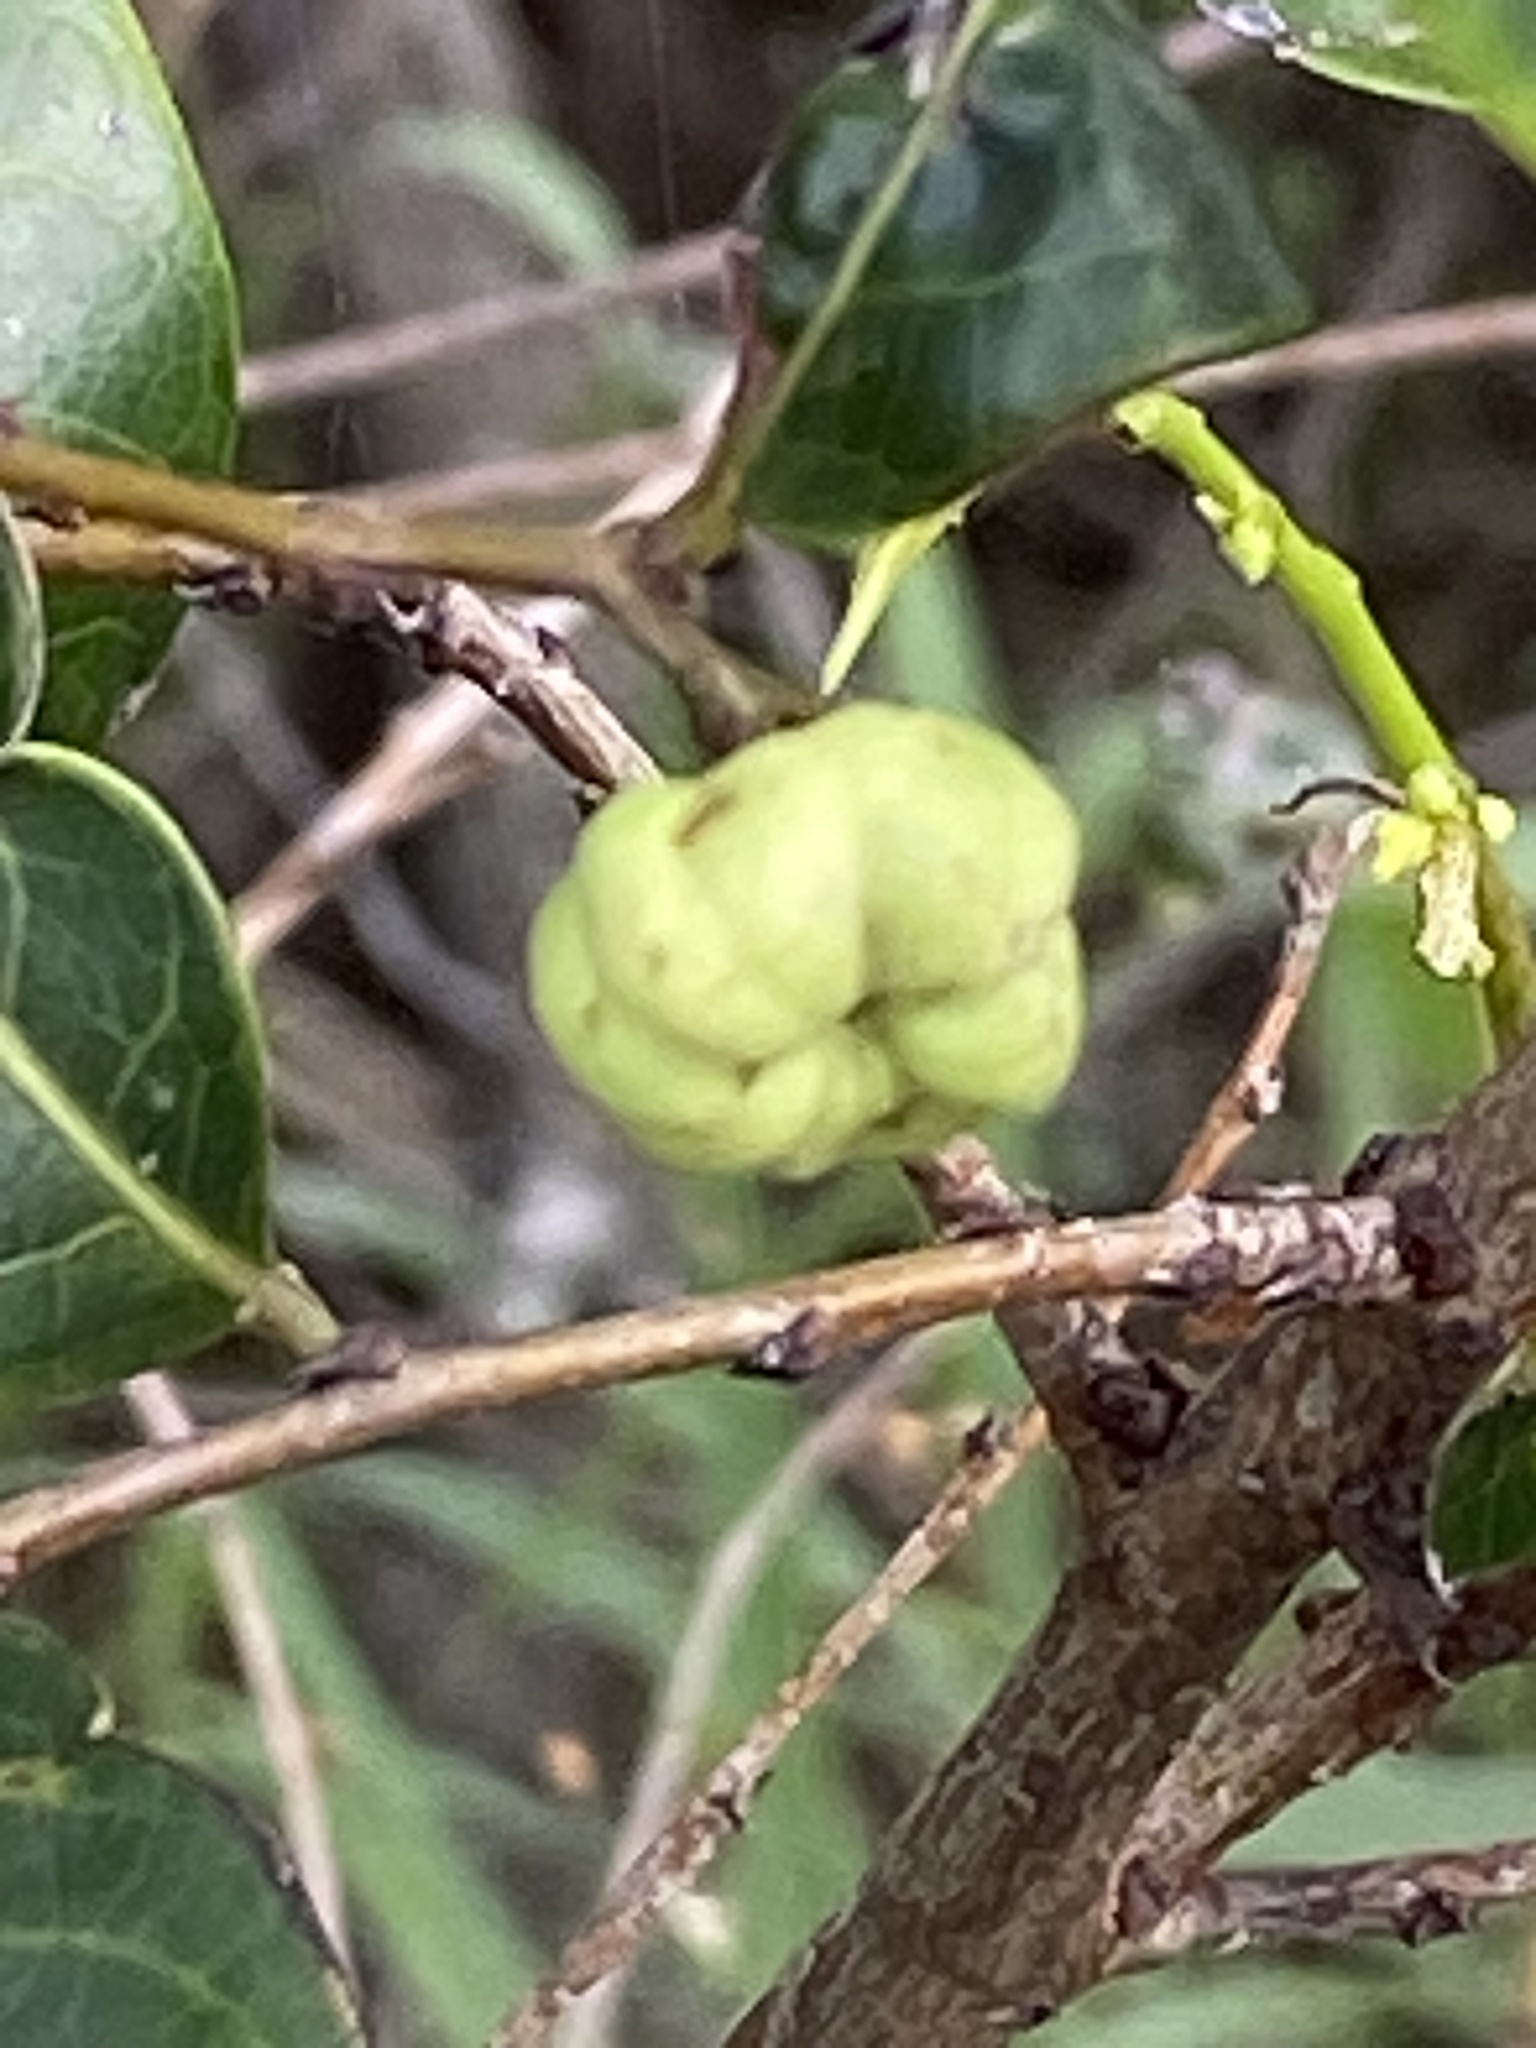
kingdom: Plantae
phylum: Tracheophyta
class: Magnoliopsida
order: Malpighiales
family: Phyllanthaceae
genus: Glochidion
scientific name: Glochidion ferdinandi
